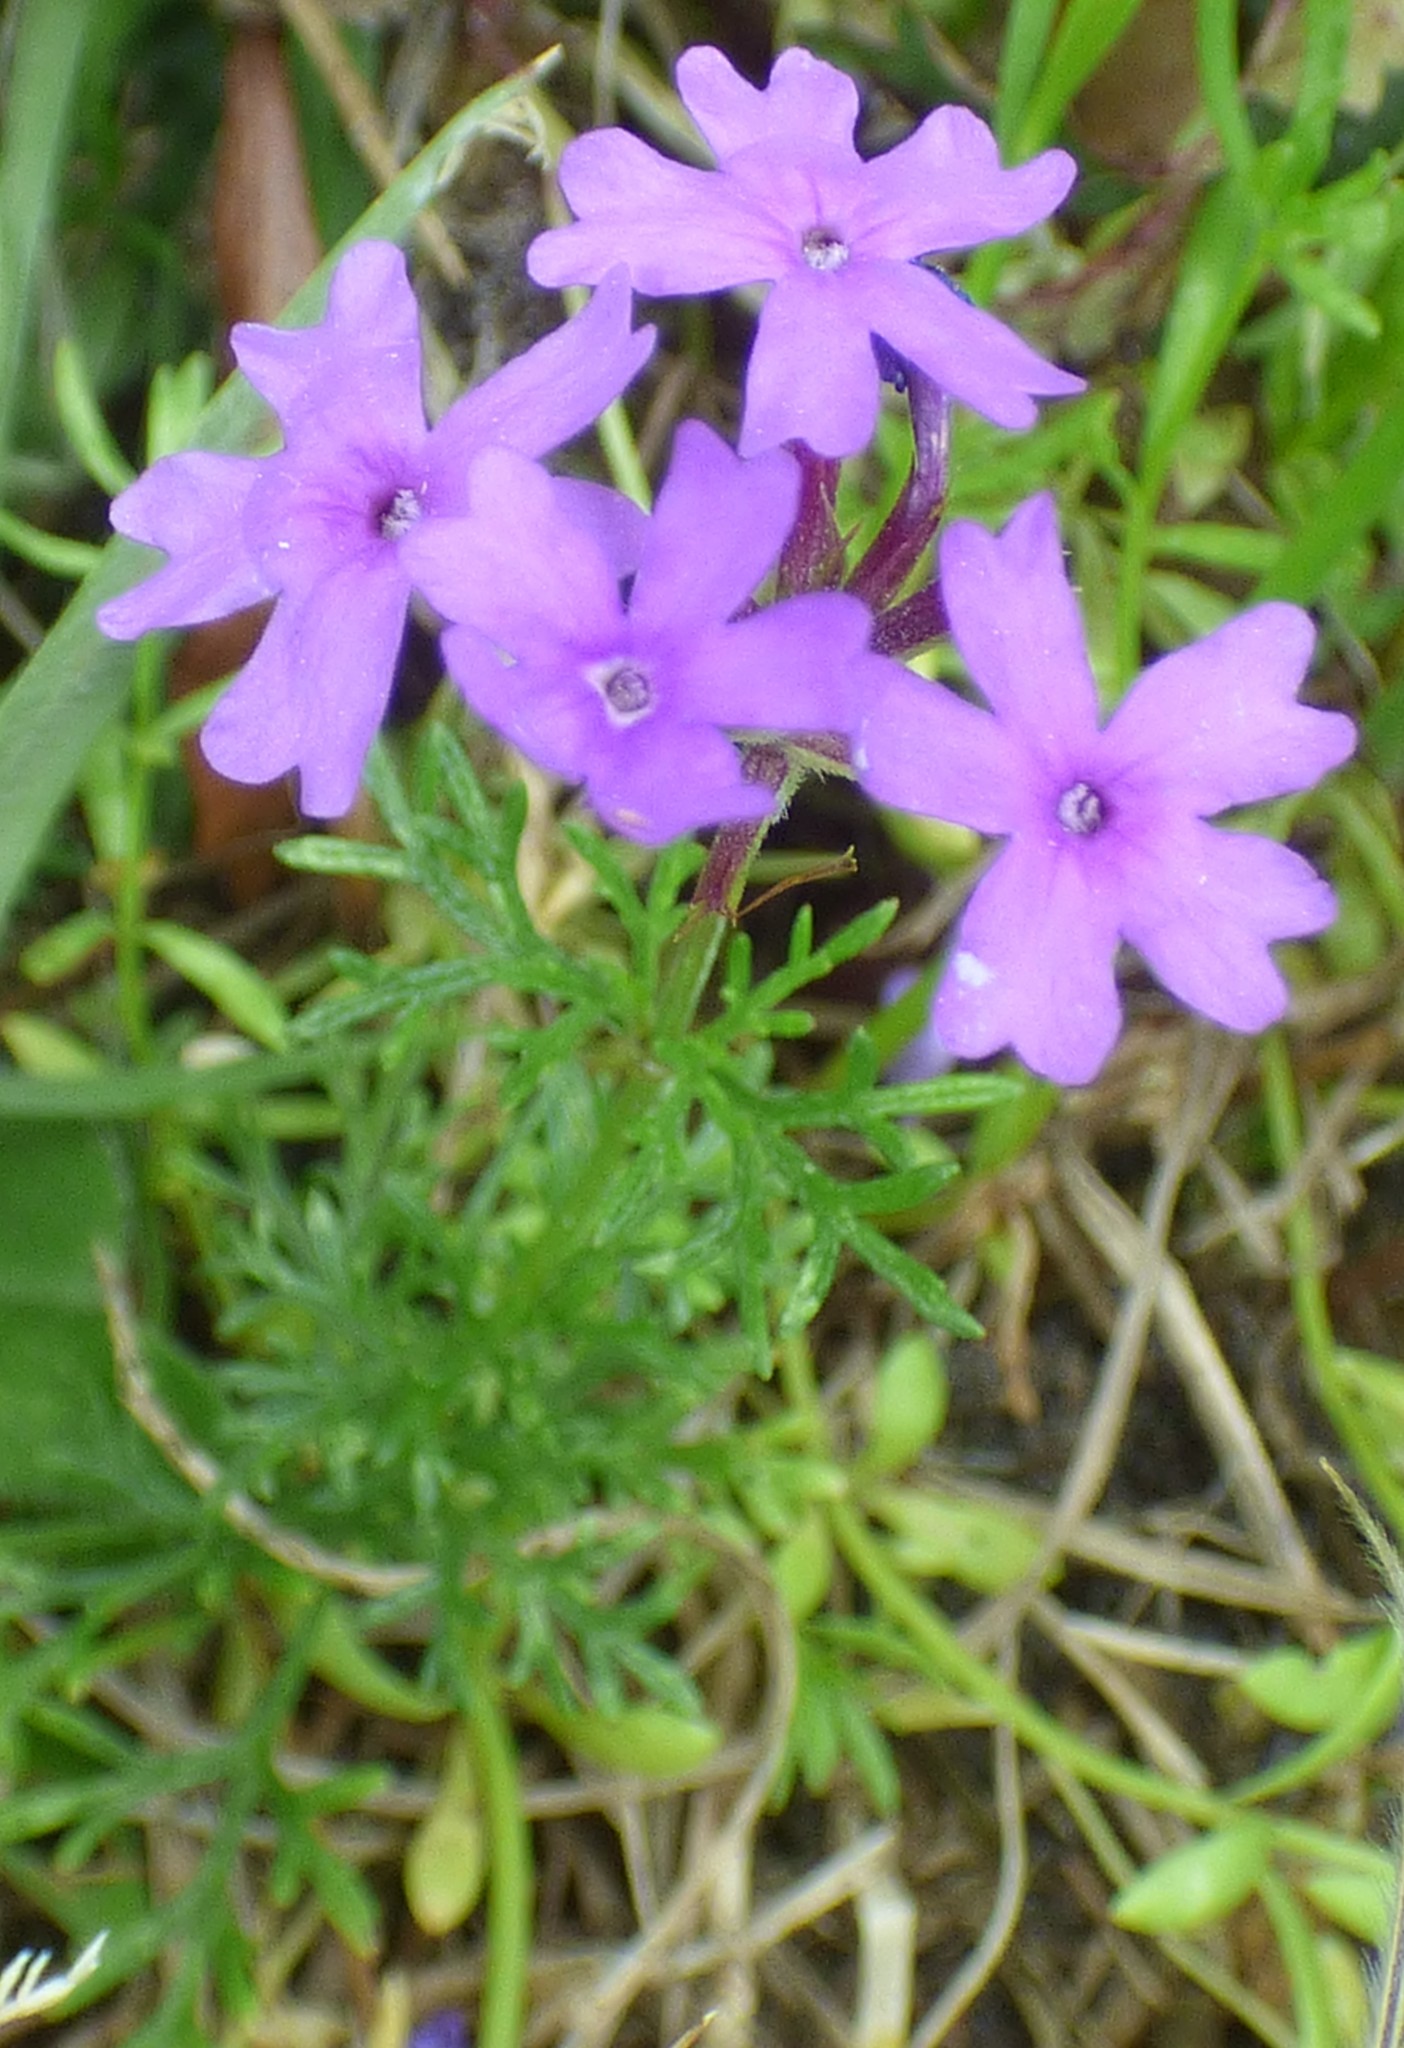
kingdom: Plantae
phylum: Tracheophyta
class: Magnoliopsida
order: Lamiales
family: Verbenaceae
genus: Verbena
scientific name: Verbena
